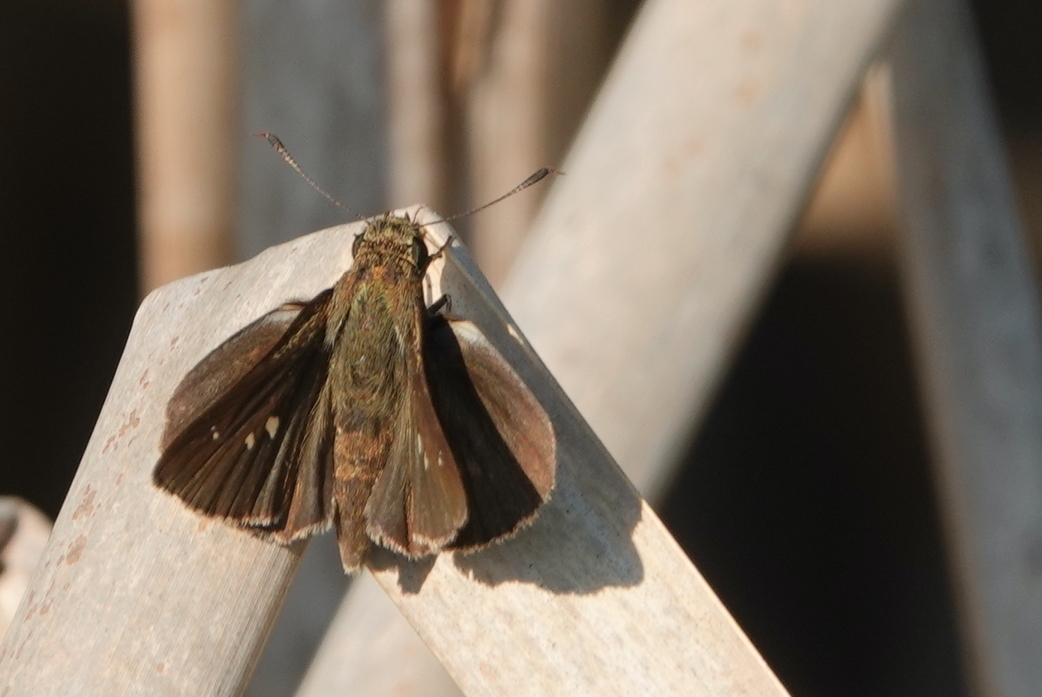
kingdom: Animalia
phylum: Arthropoda
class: Insecta
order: Lepidoptera
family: Hesperiidae
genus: Oligoria
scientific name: Oligoria maculata
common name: Twin-spot skipper
